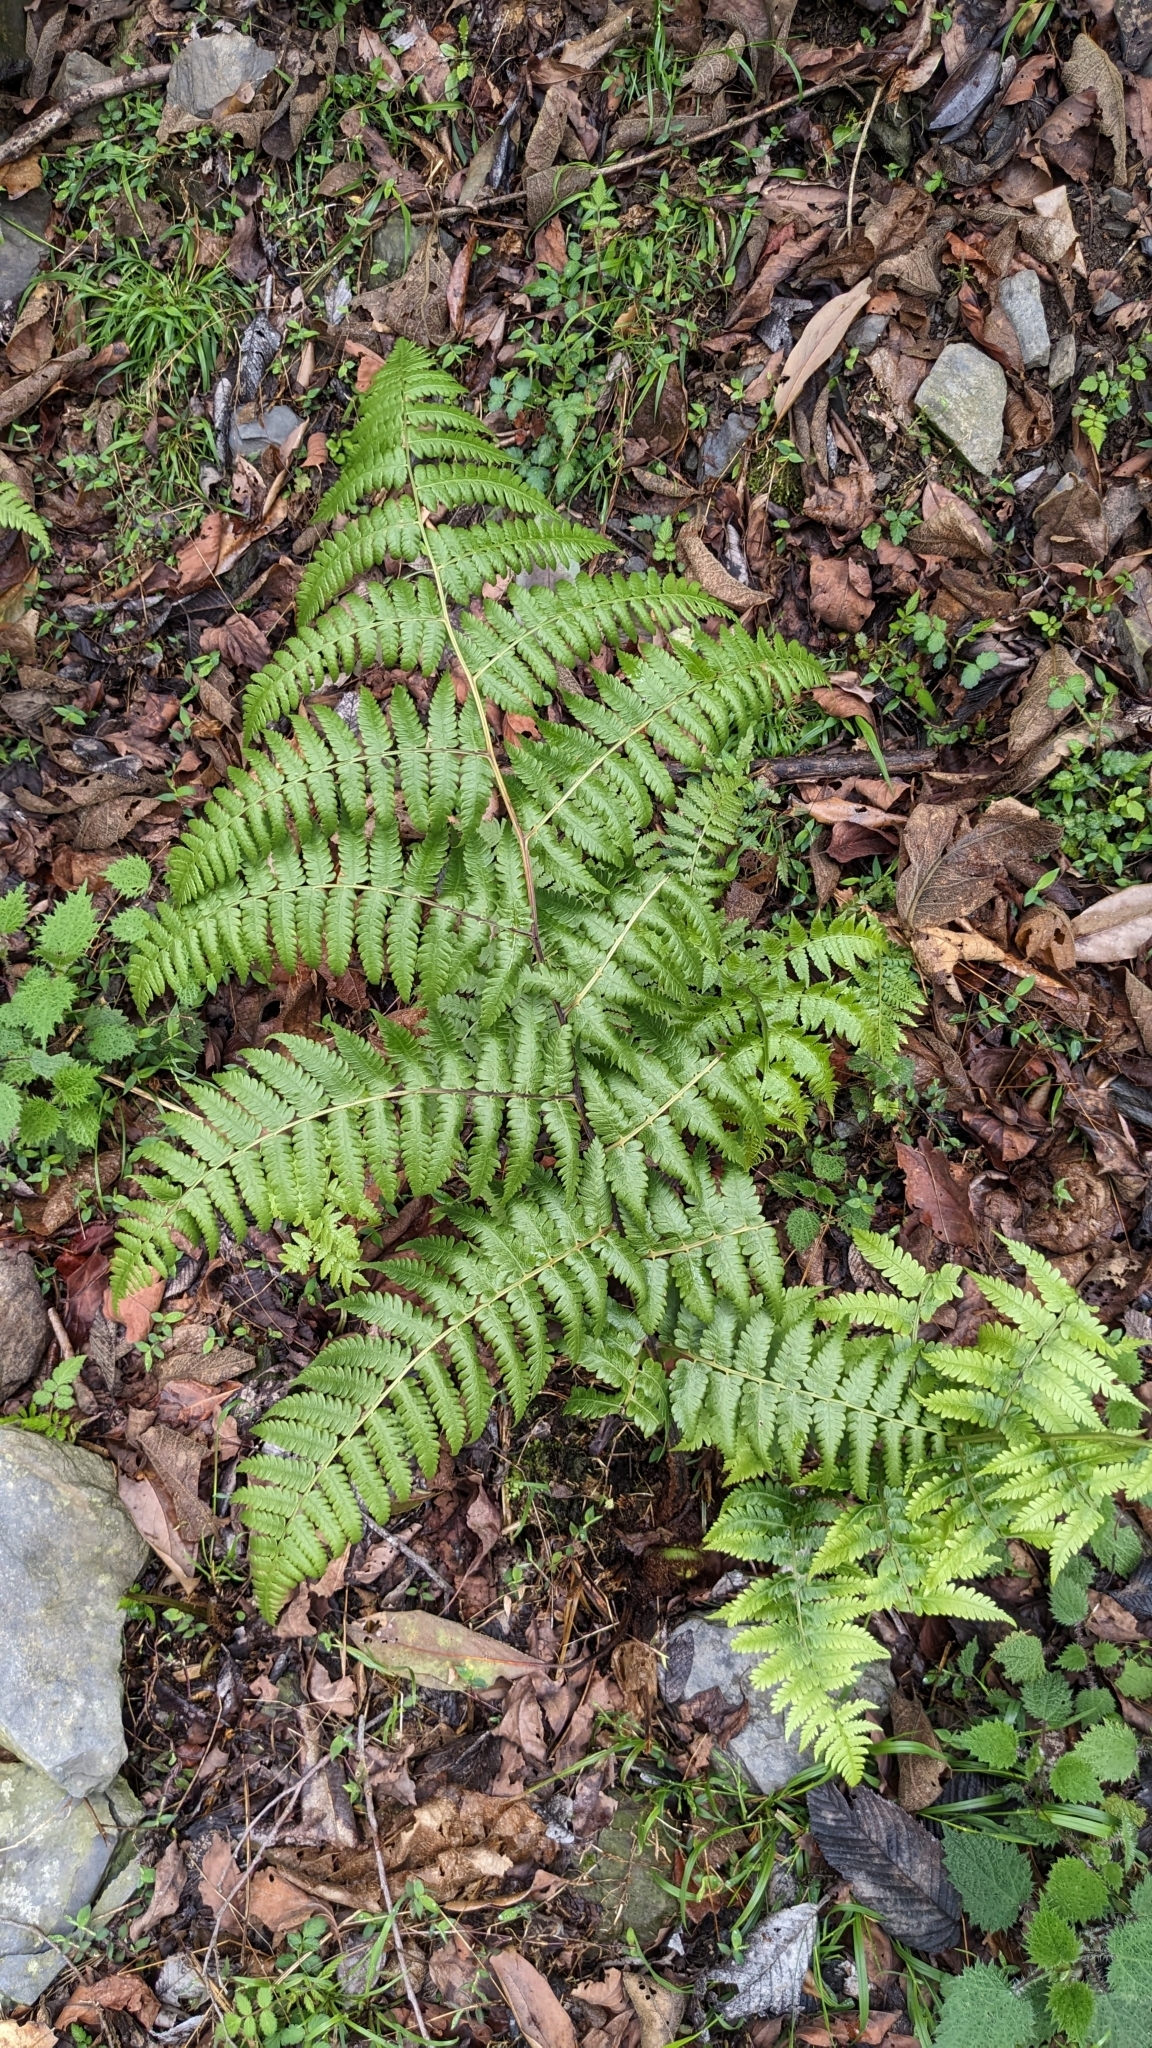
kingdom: Plantae
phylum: Tracheophyta
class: Polypodiopsida
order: Polypodiales
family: Athyriaceae
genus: Diplazium
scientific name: Diplazium maximum
